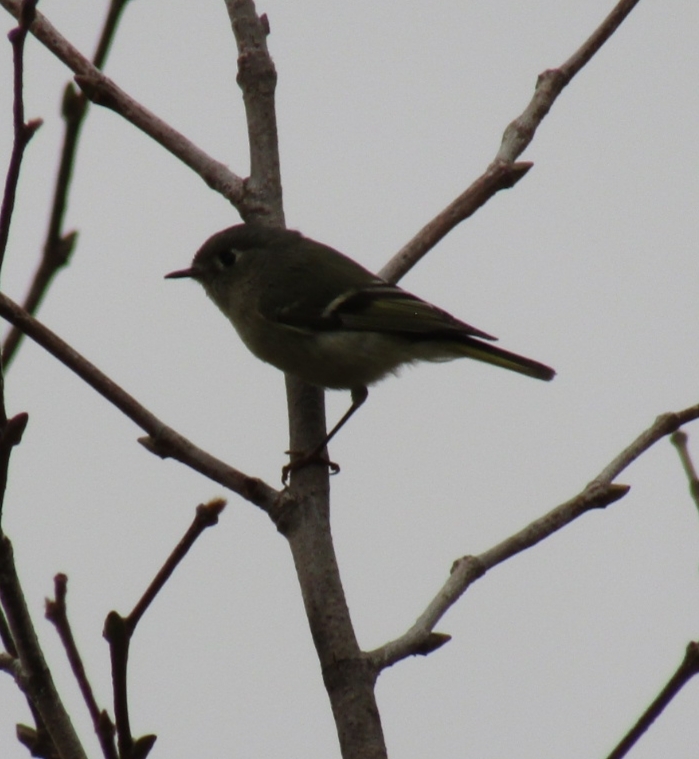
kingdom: Animalia
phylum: Chordata
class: Aves
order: Passeriformes
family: Regulidae
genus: Regulus
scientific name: Regulus calendula
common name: Ruby-crowned kinglet
